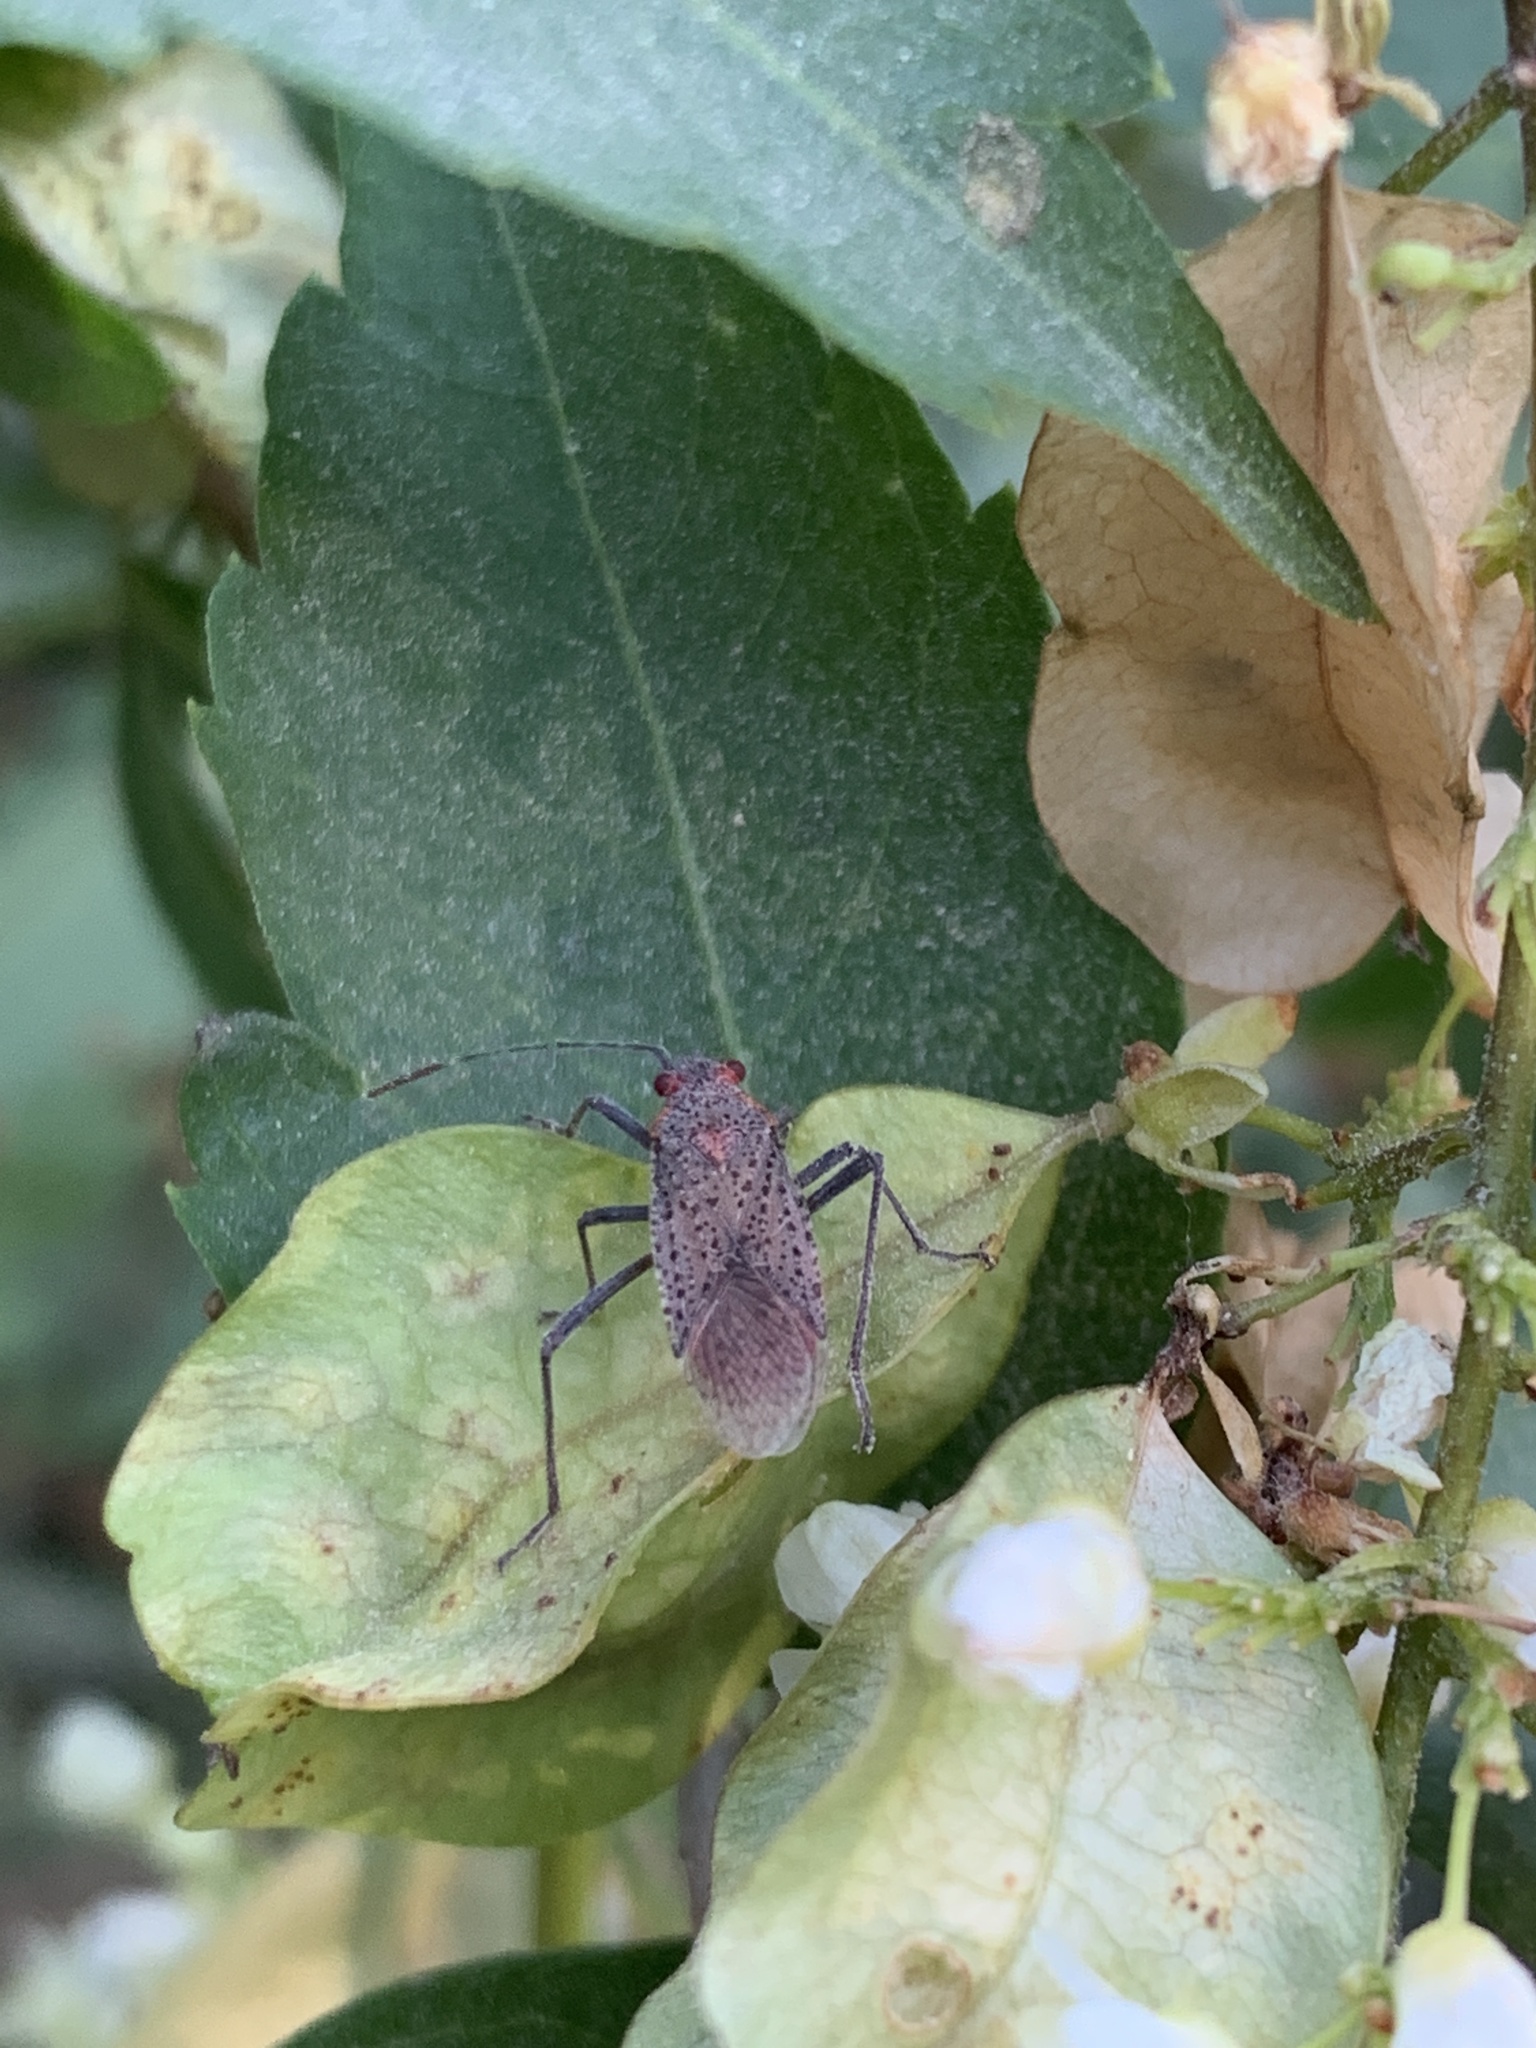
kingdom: Animalia
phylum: Arthropoda
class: Insecta
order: Hemiptera
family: Rhopalidae
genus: Jadera
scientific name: Jadera coturnix
